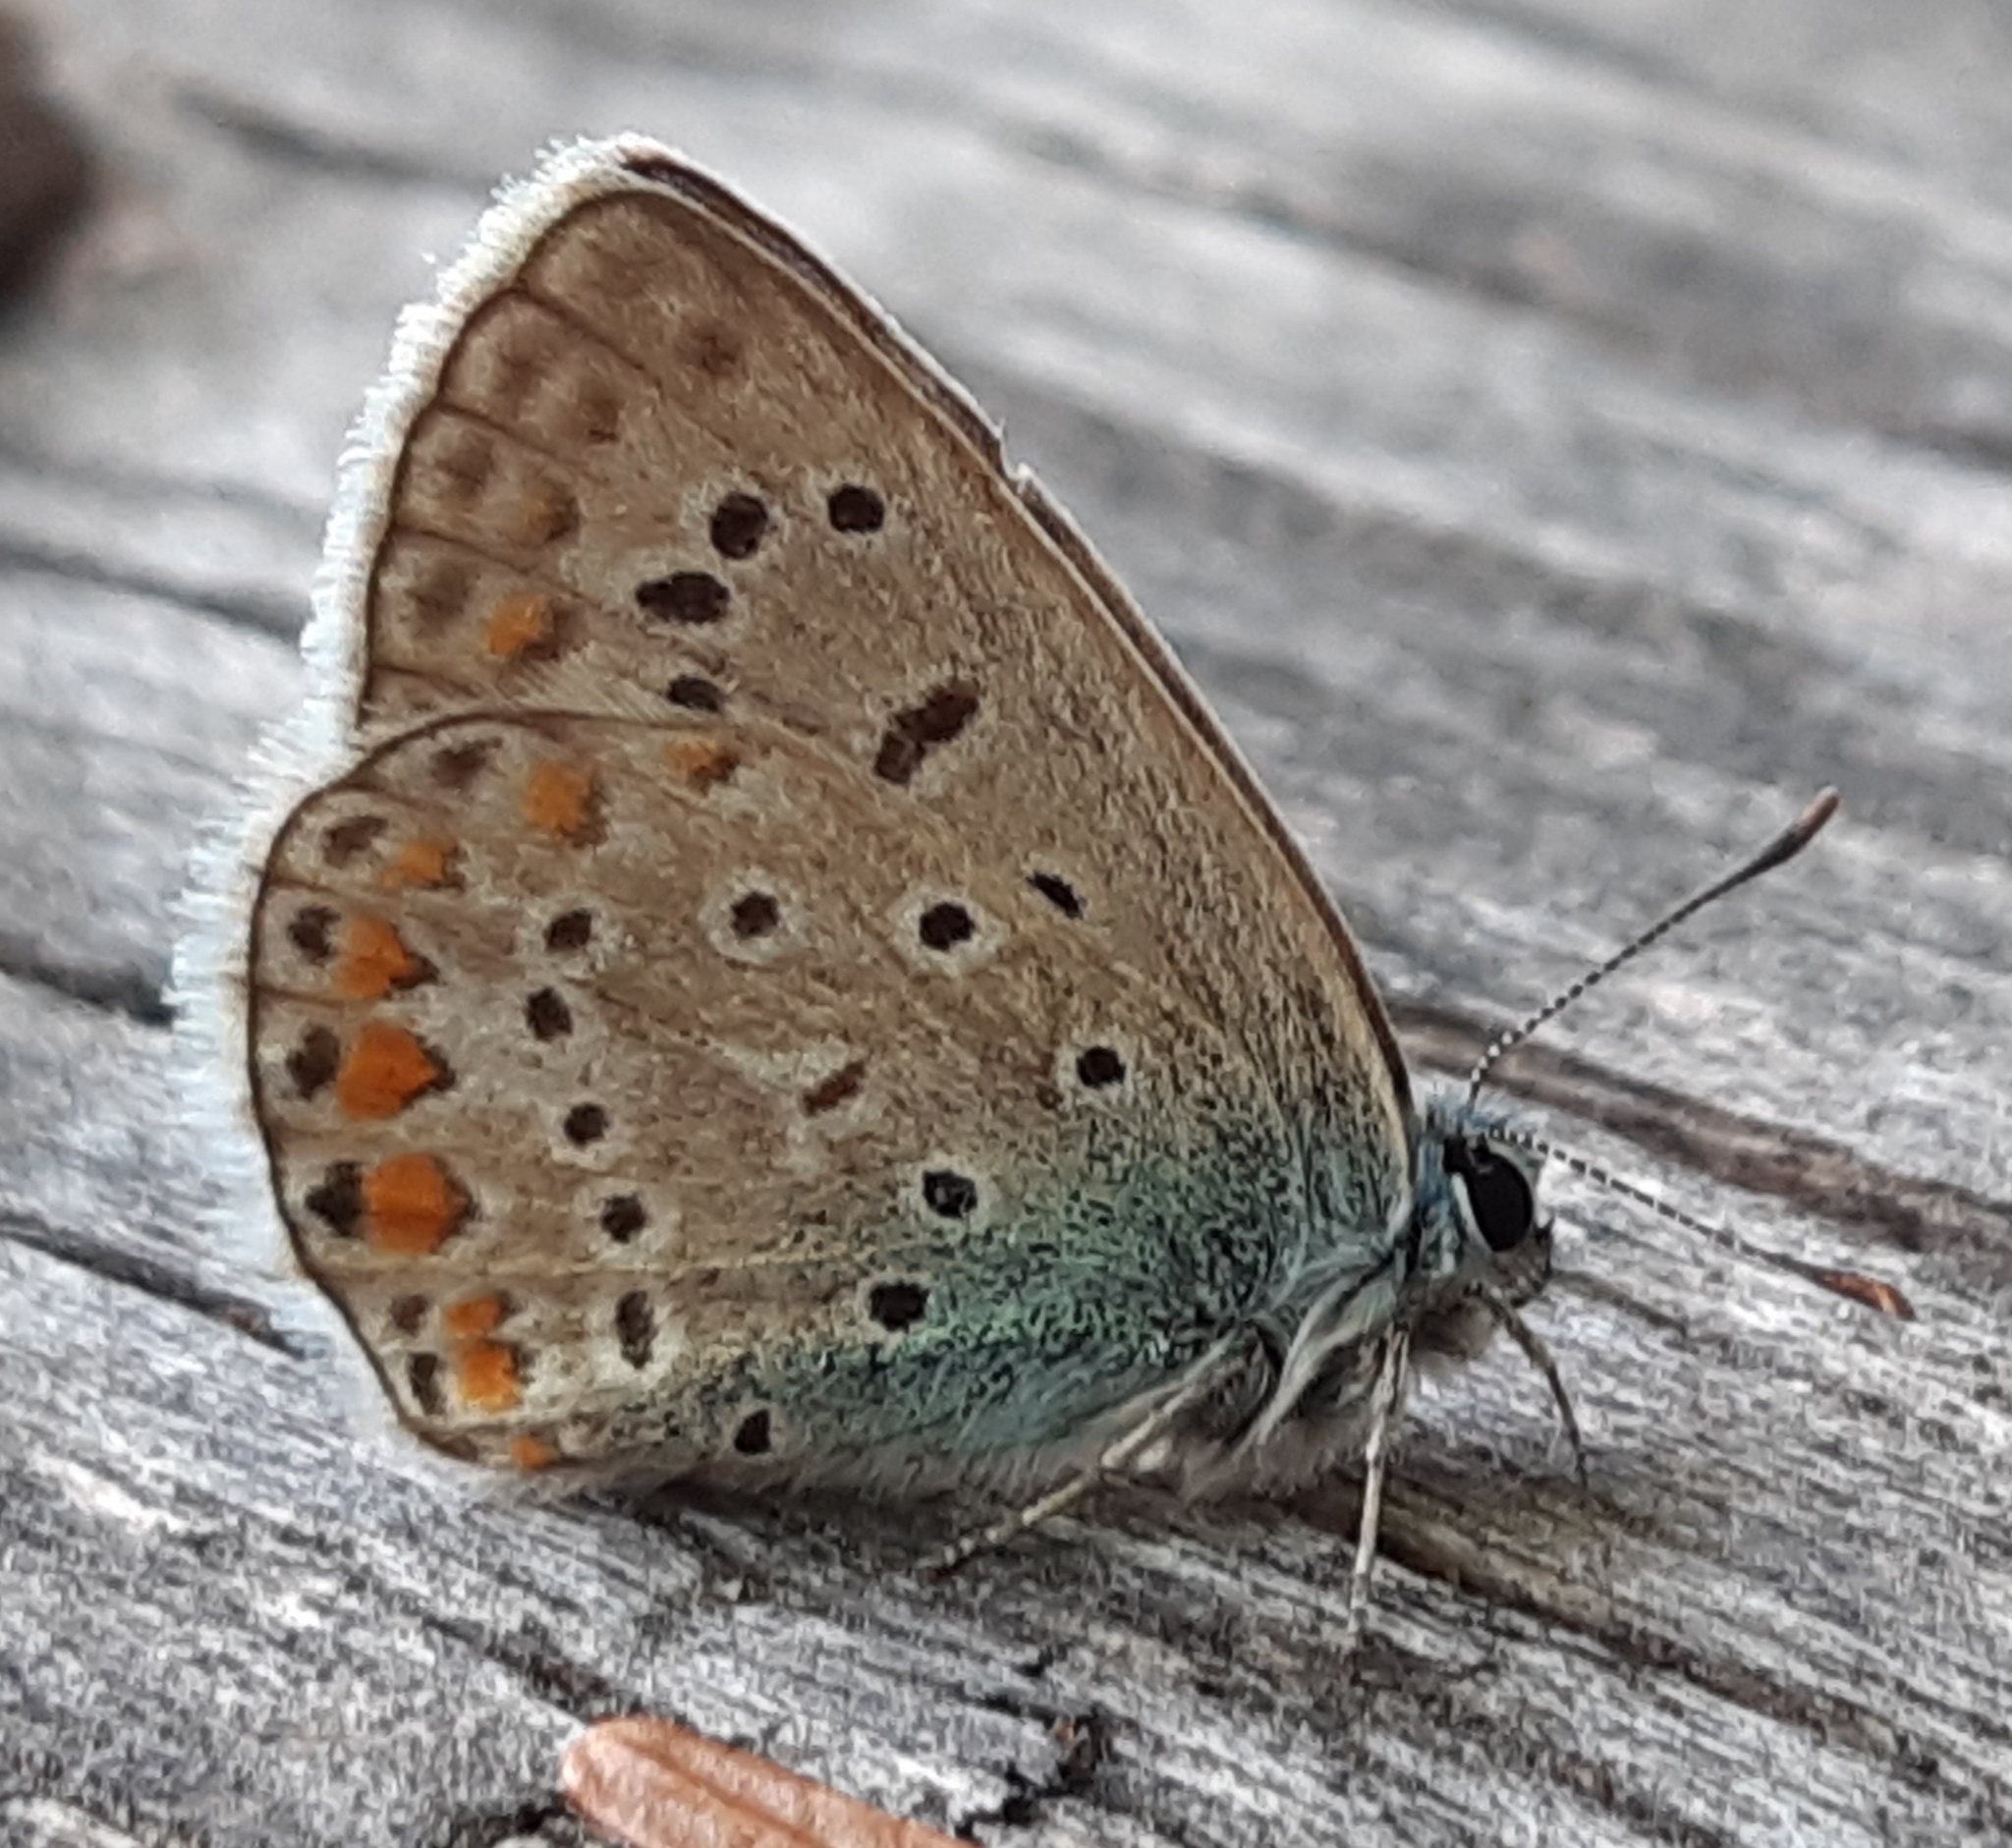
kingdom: Animalia
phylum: Arthropoda
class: Insecta
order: Lepidoptera
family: Lycaenidae
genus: Polyommatus
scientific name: Polyommatus icarus
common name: Common blue
